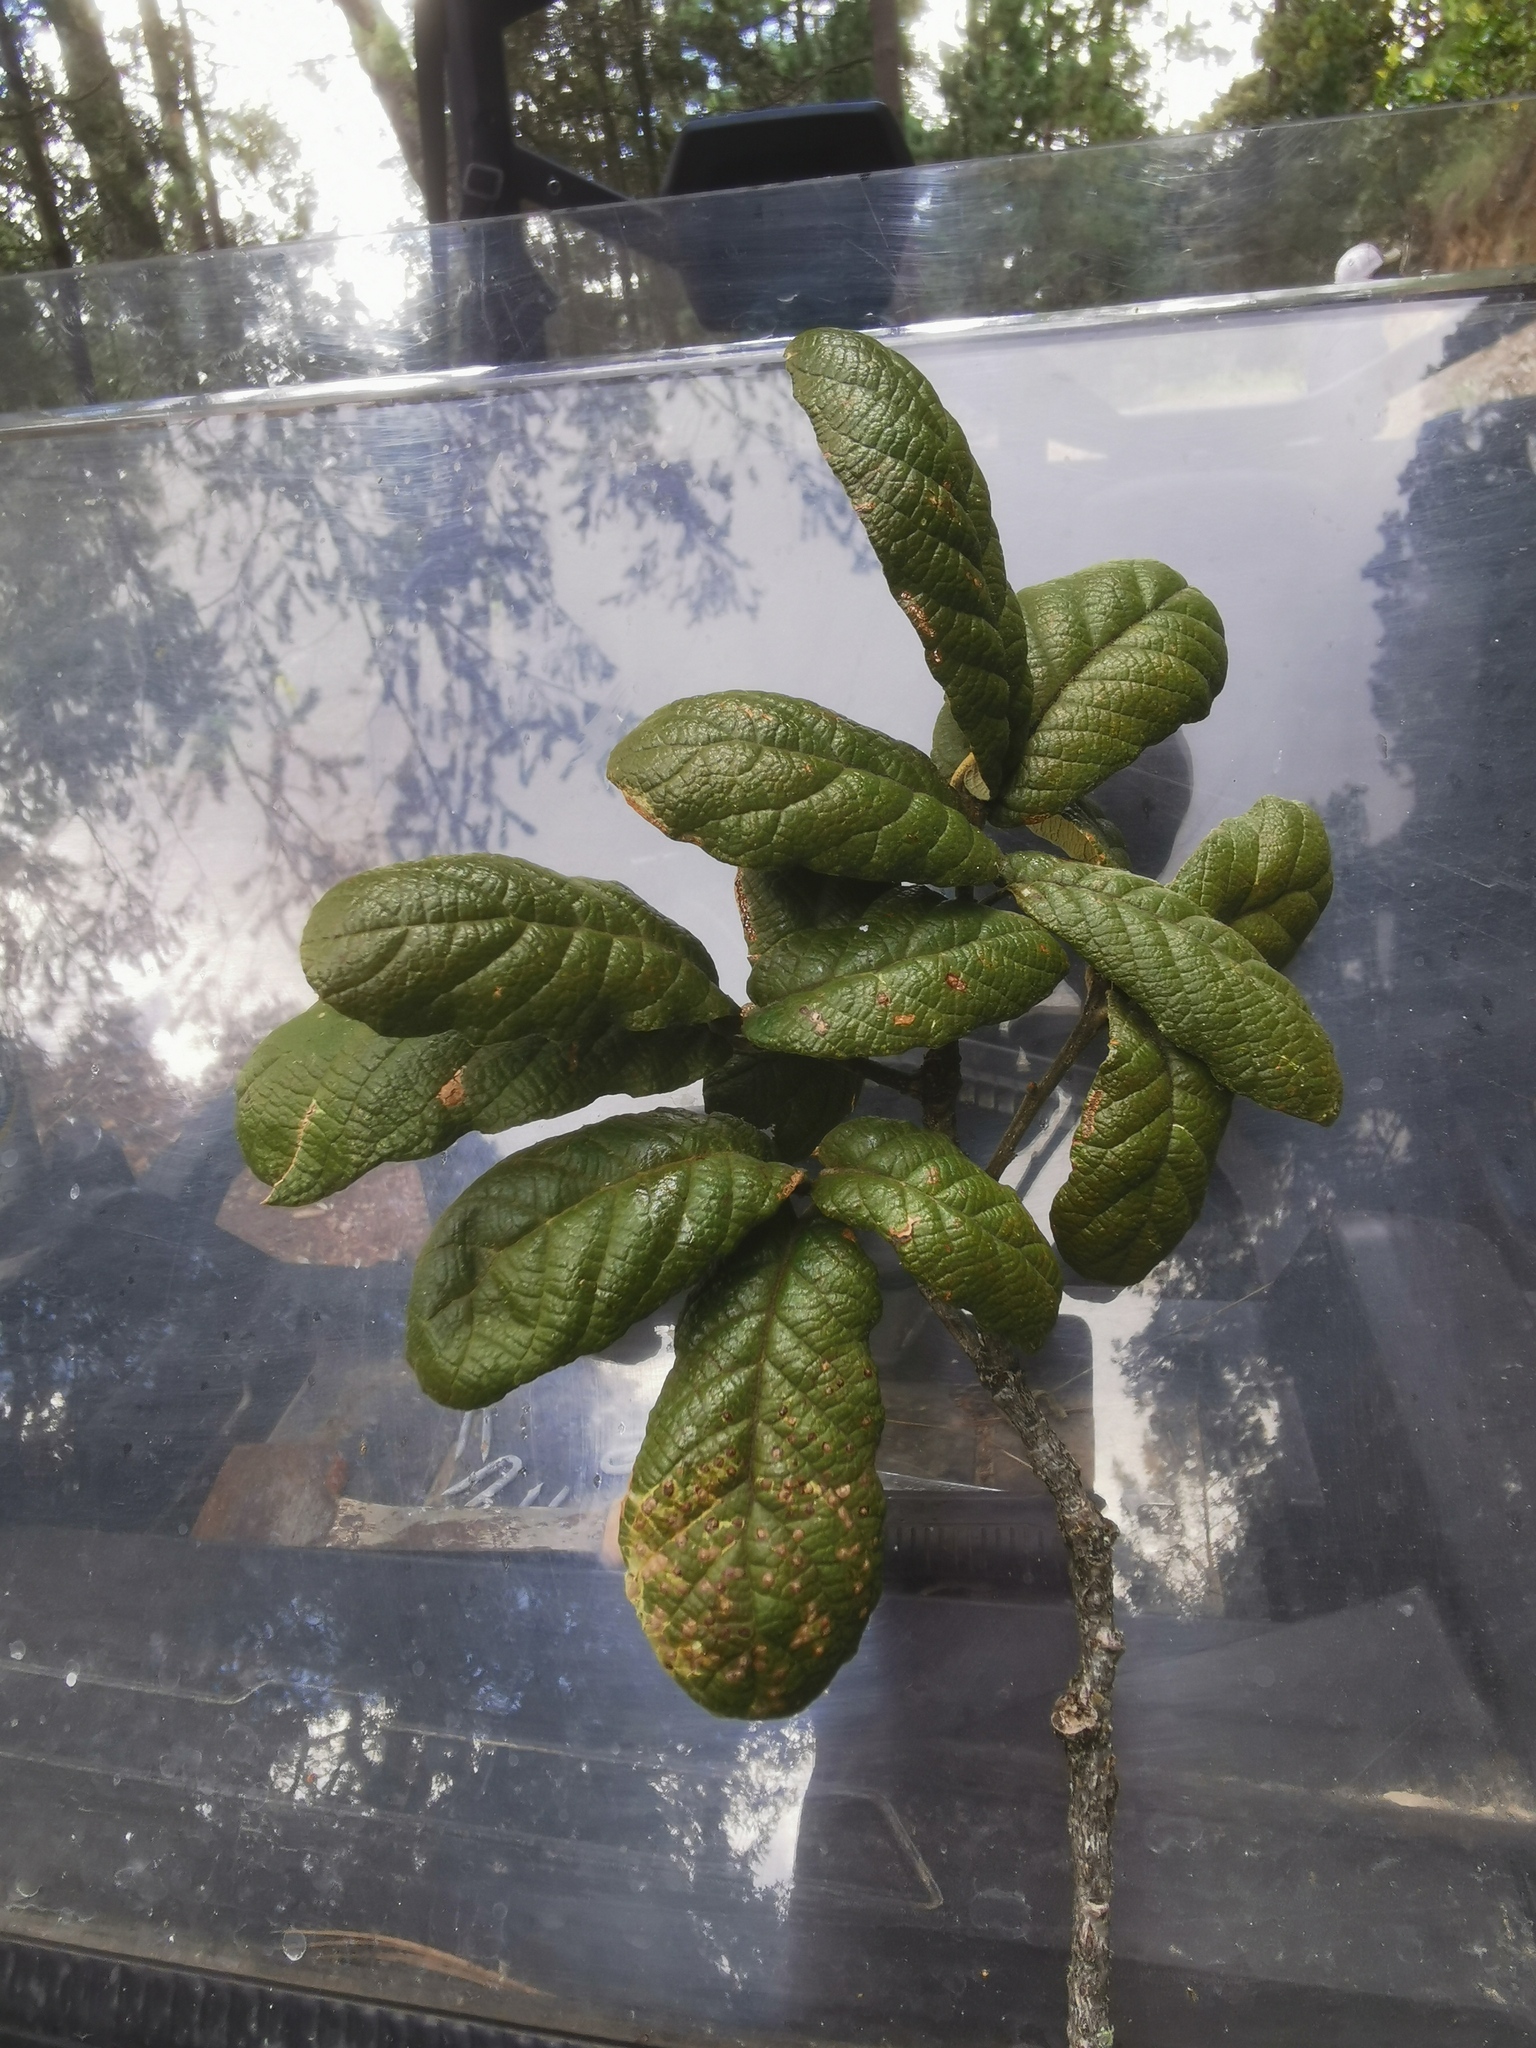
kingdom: Plantae
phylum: Tracheophyta
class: Magnoliopsida
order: Fagales
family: Fagaceae
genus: Quercus
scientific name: Quercus rugosa
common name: Netleaf oak
